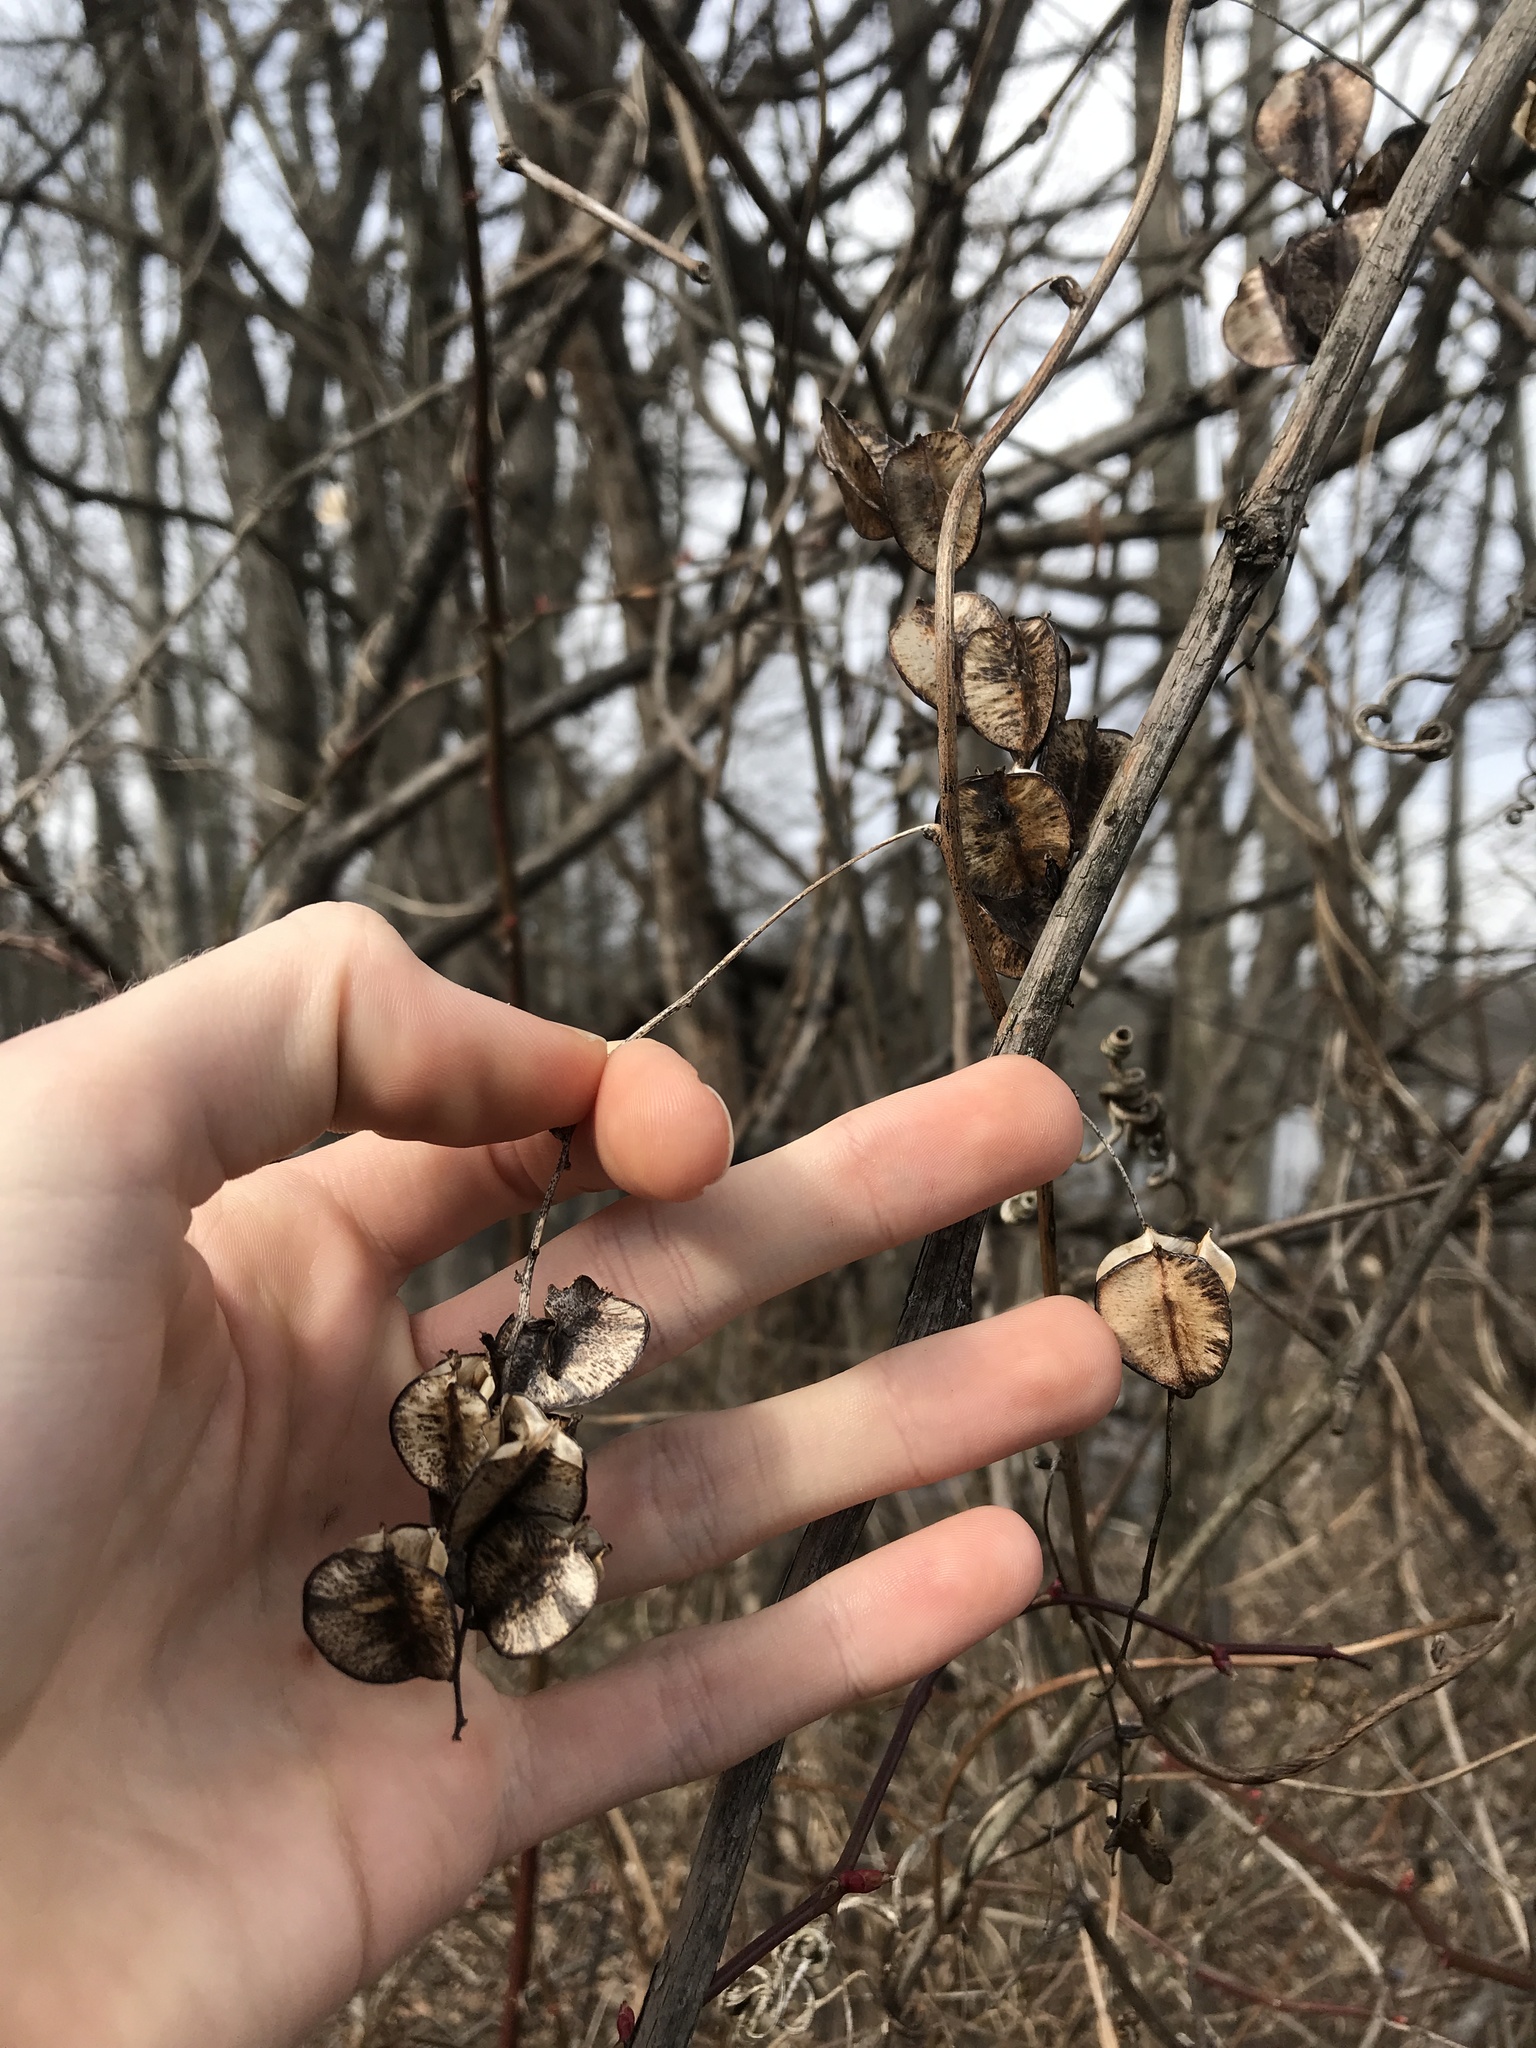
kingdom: Plantae
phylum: Tracheophyta
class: Liliopsida
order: Dioscoreales
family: Dioscoreaceae
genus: Dioscorea
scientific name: Dioscorea villosa
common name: Wild yam
